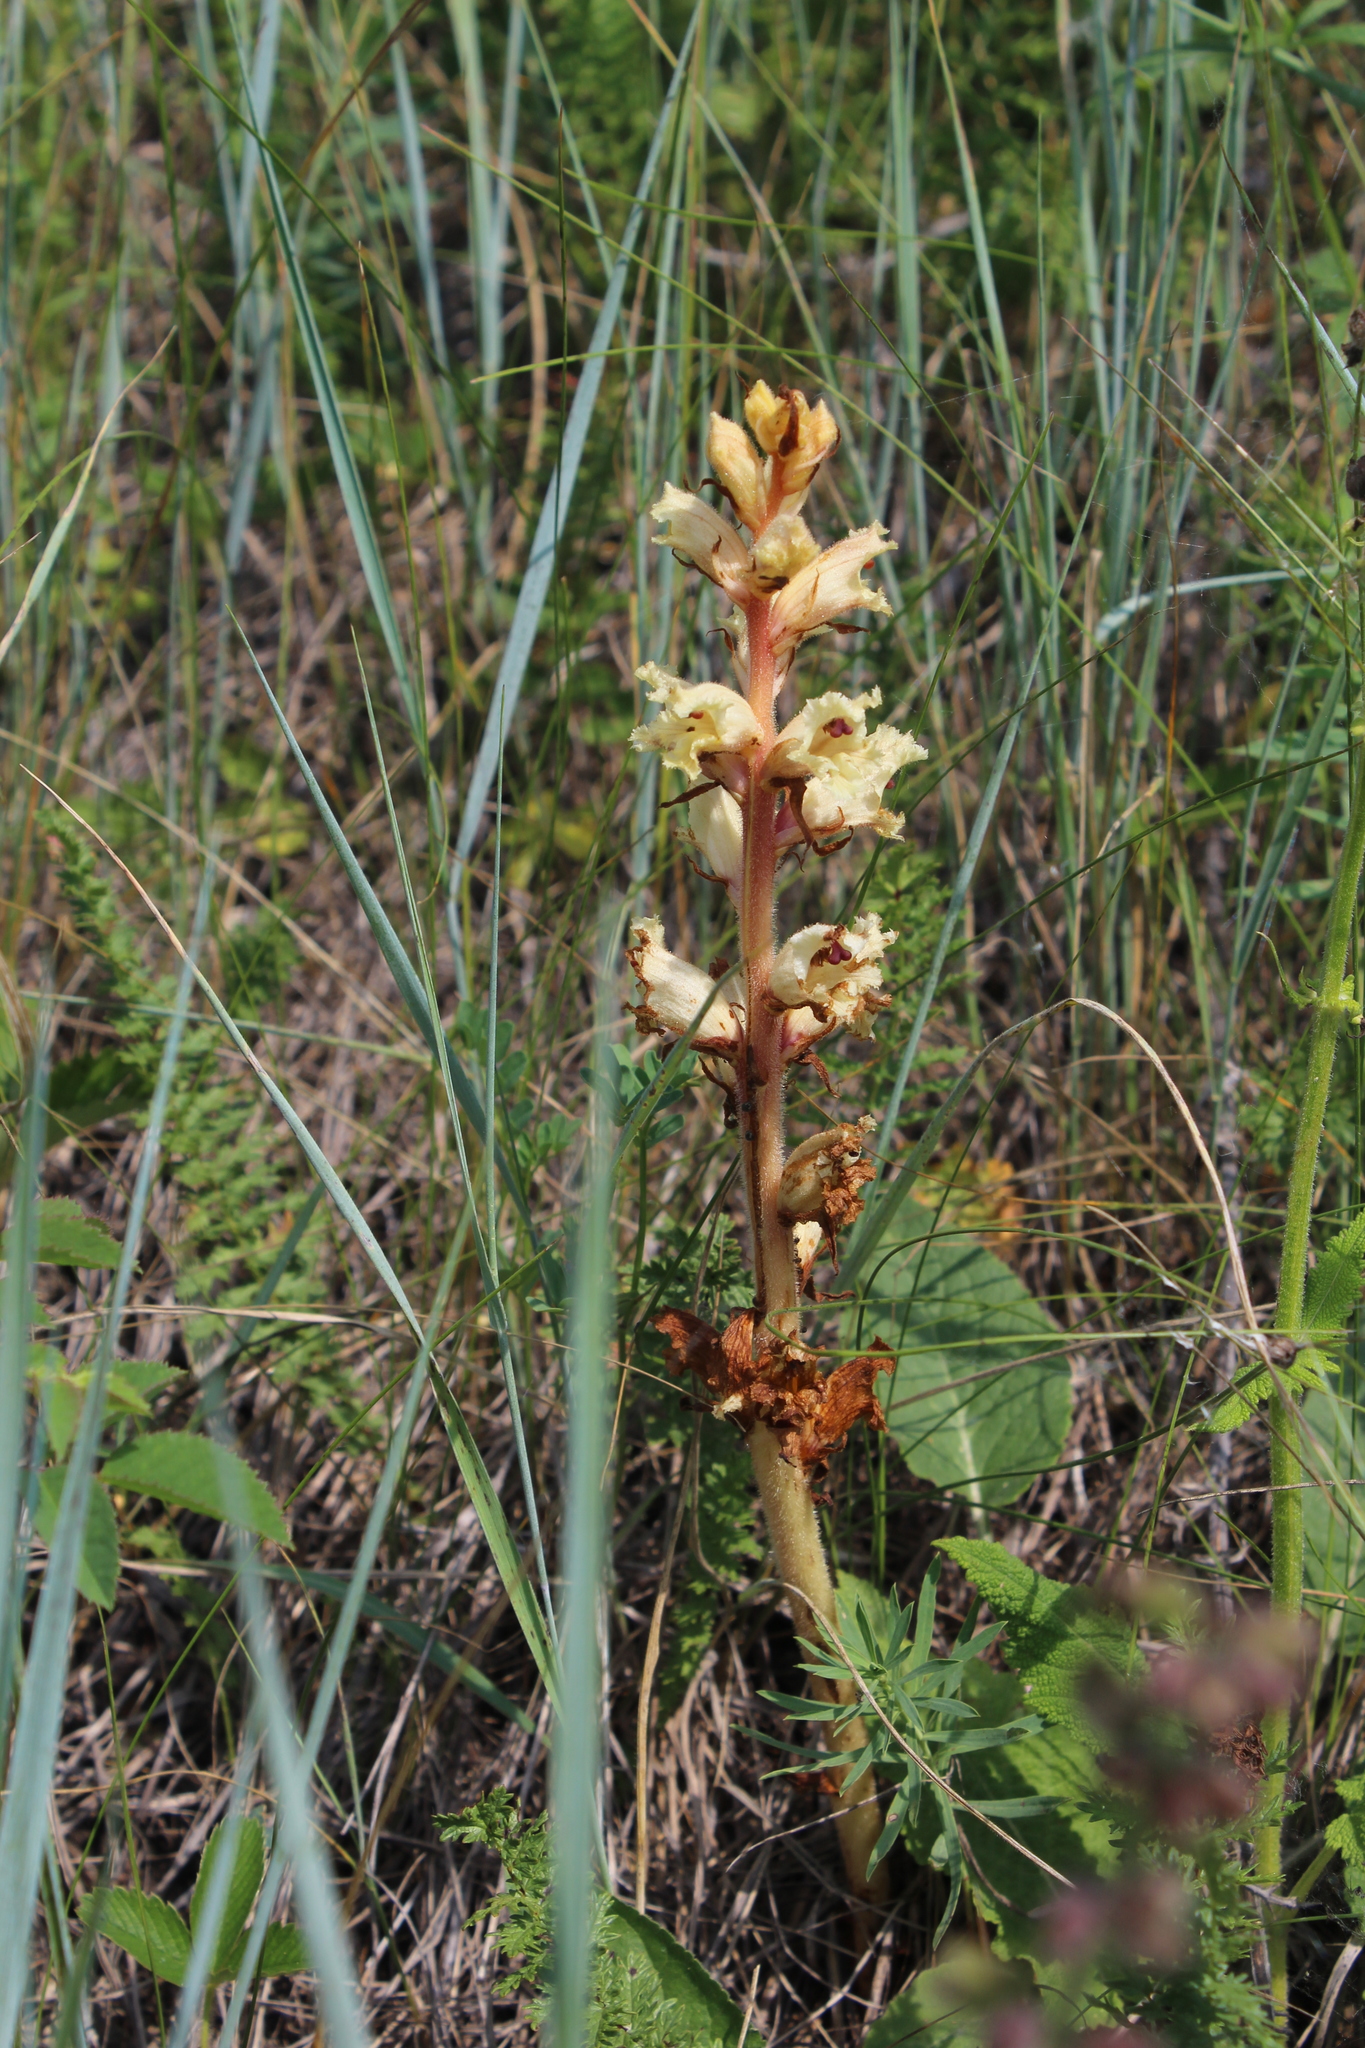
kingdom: Plantae
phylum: Tracheophyta
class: Magnoliopsida
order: Lamiales
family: Orobanchaceae
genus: Orobanche
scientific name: Orobanche alba
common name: Thyme broomrape
